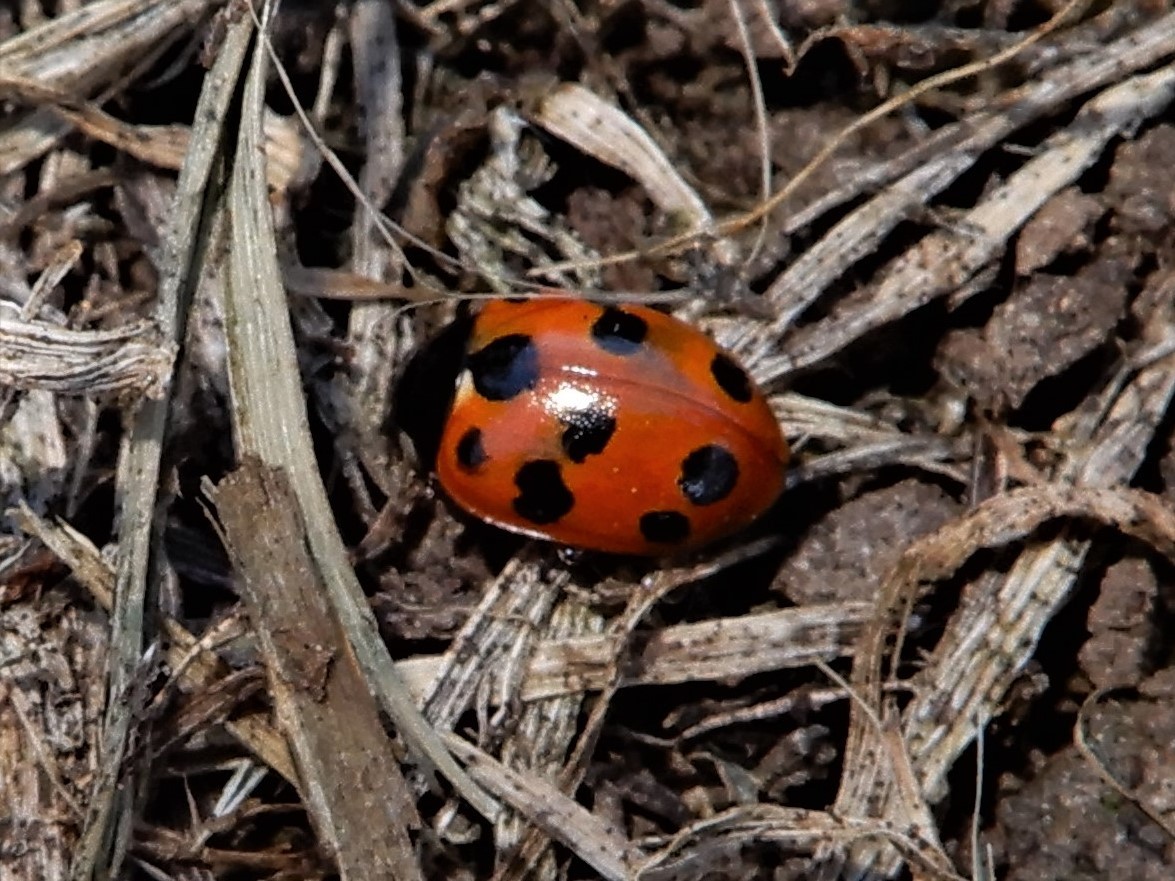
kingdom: Animalia
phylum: Arthropoda
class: Insecta
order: Coleoptera
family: Coccinellidae
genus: Coccinella
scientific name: Coccinella undecimpunctata
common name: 11-spot ladybird
